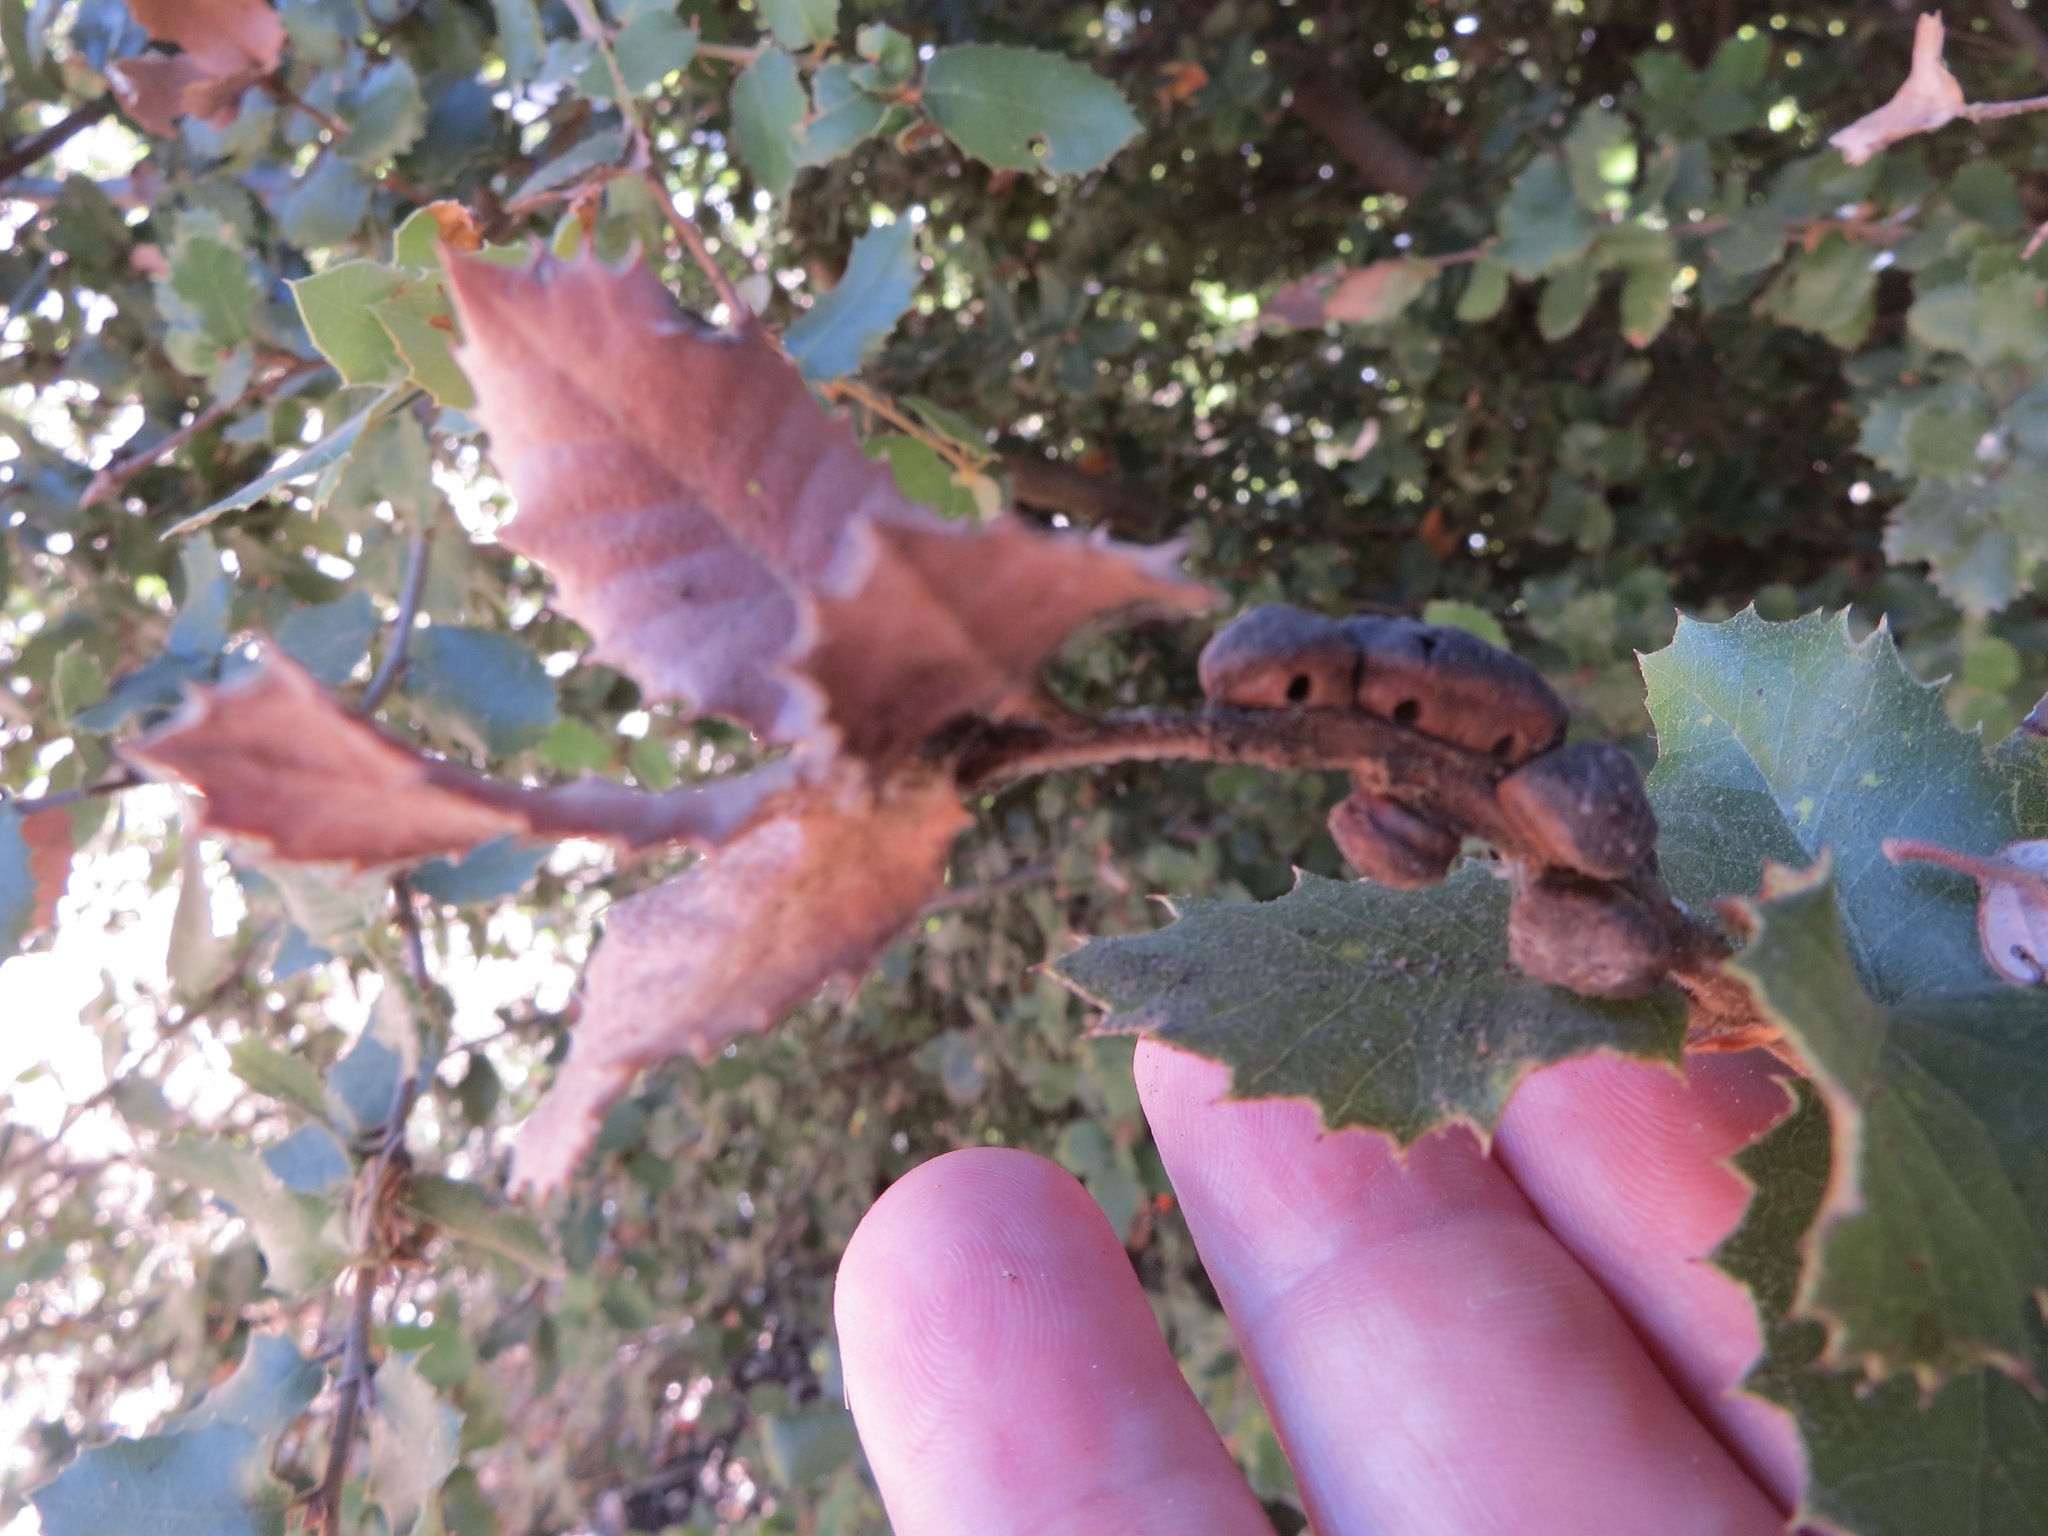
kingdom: Animalia
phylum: Arthropoda
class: Insecta
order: Hymenoptera
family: Cynipidae
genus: Disholandricus
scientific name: Disholandricus
